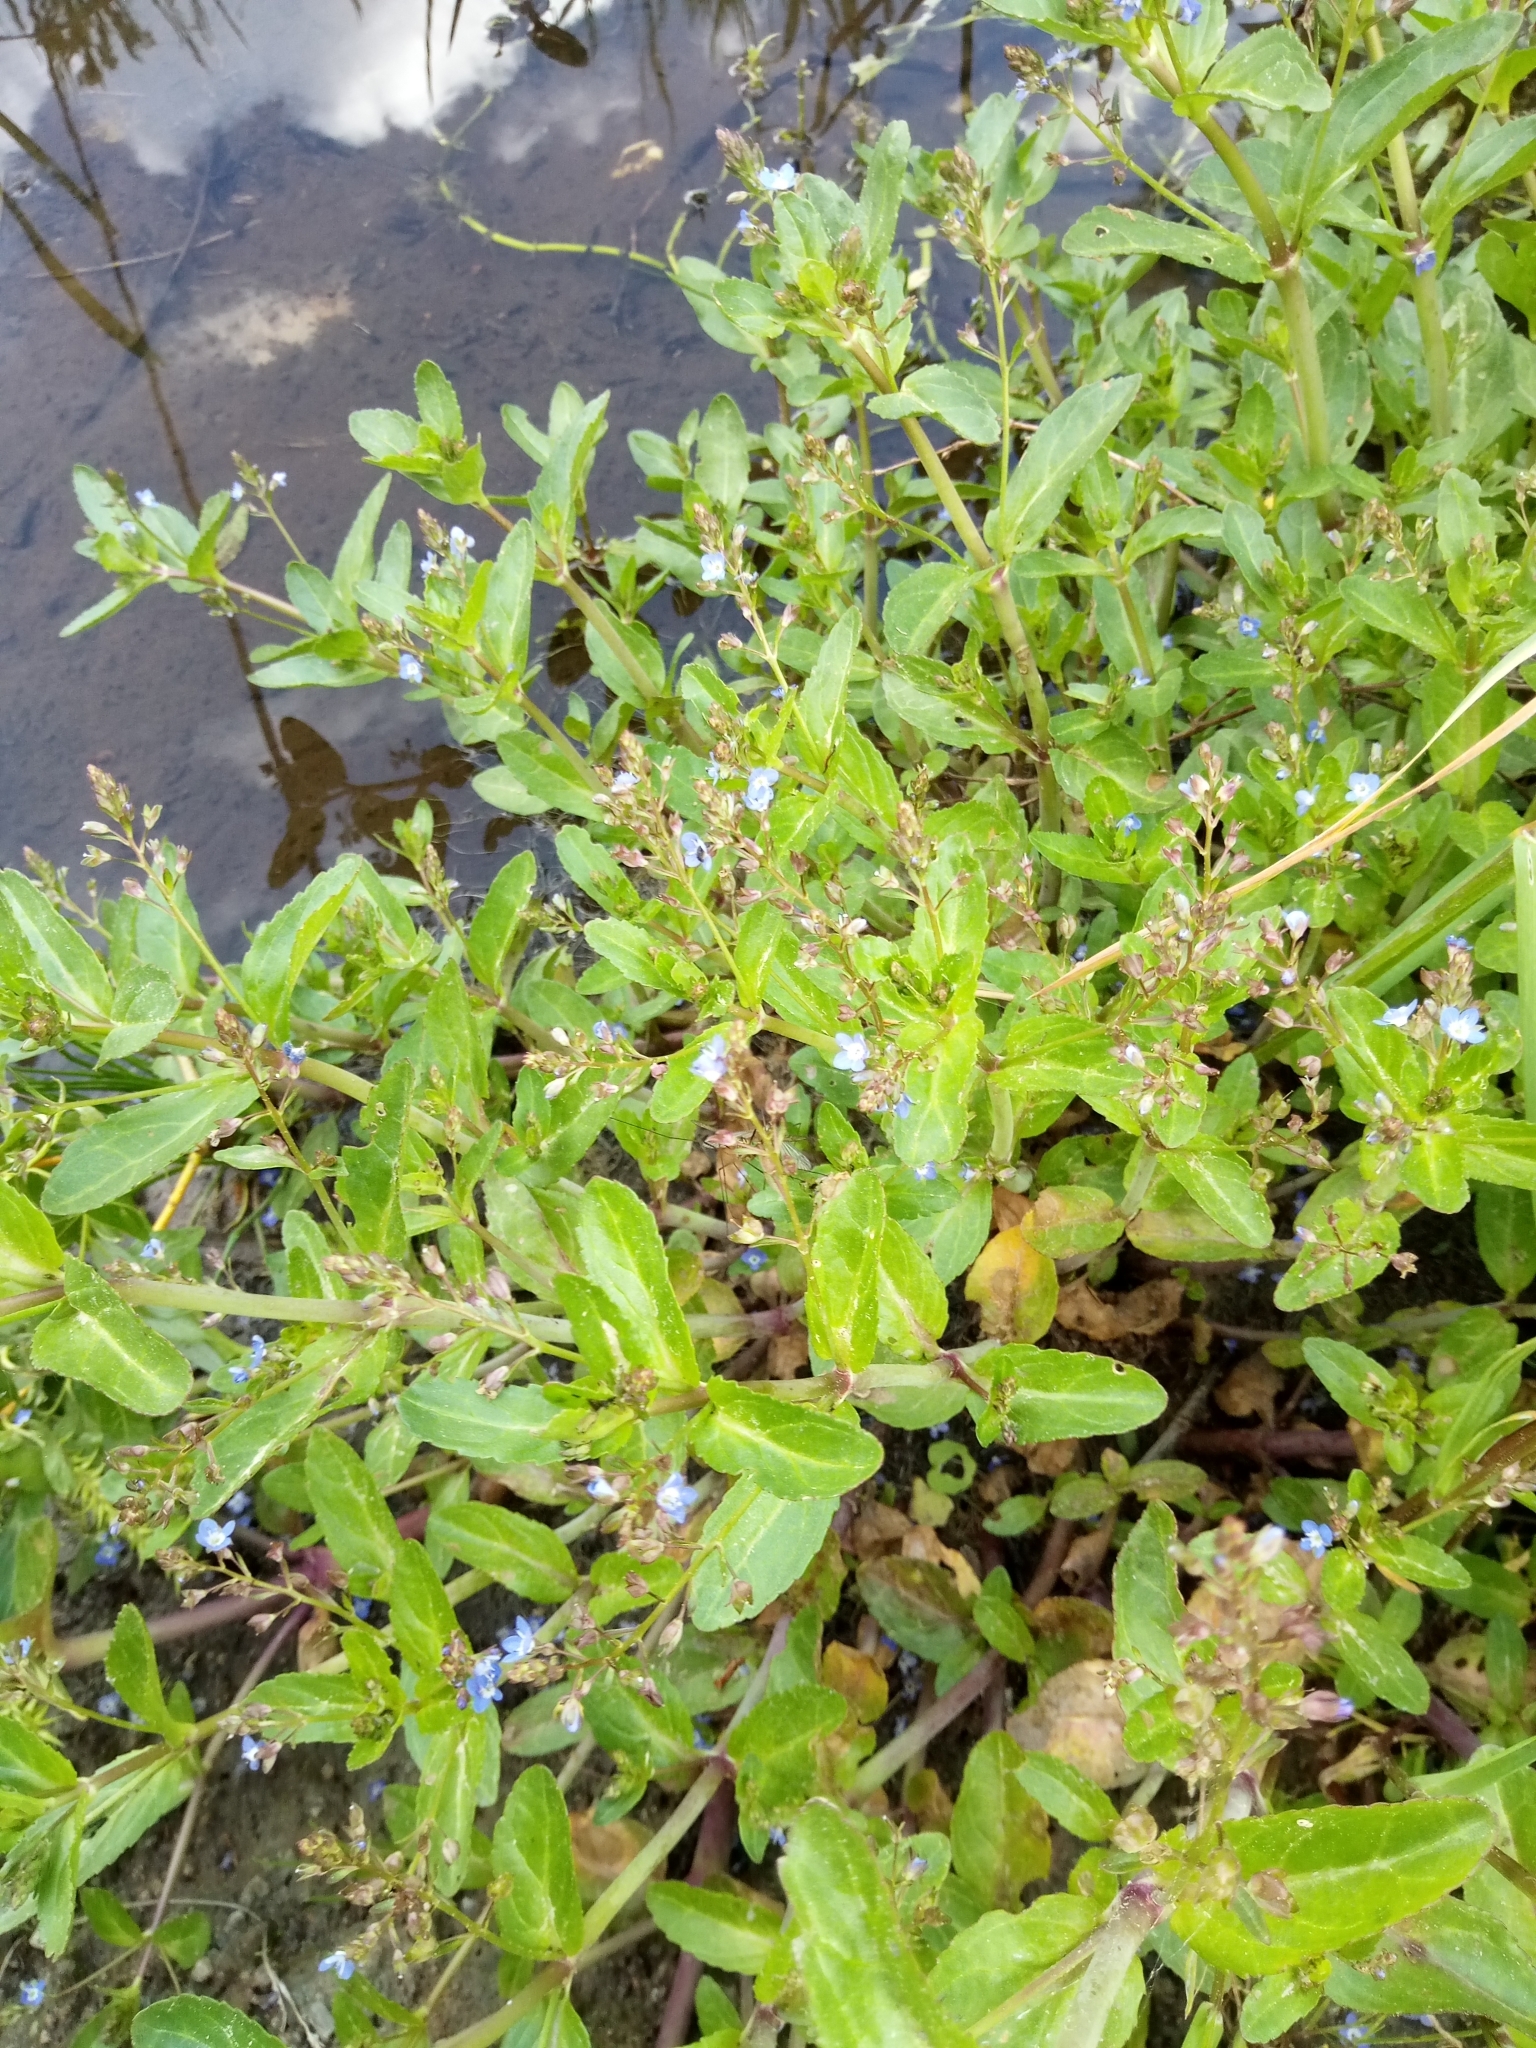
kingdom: Plantae
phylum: Tracheophyta
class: Magnoliopsida
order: Lamiales
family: Plantaginaceae
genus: Veronica
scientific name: Veronica beccabunga
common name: Brooklime
